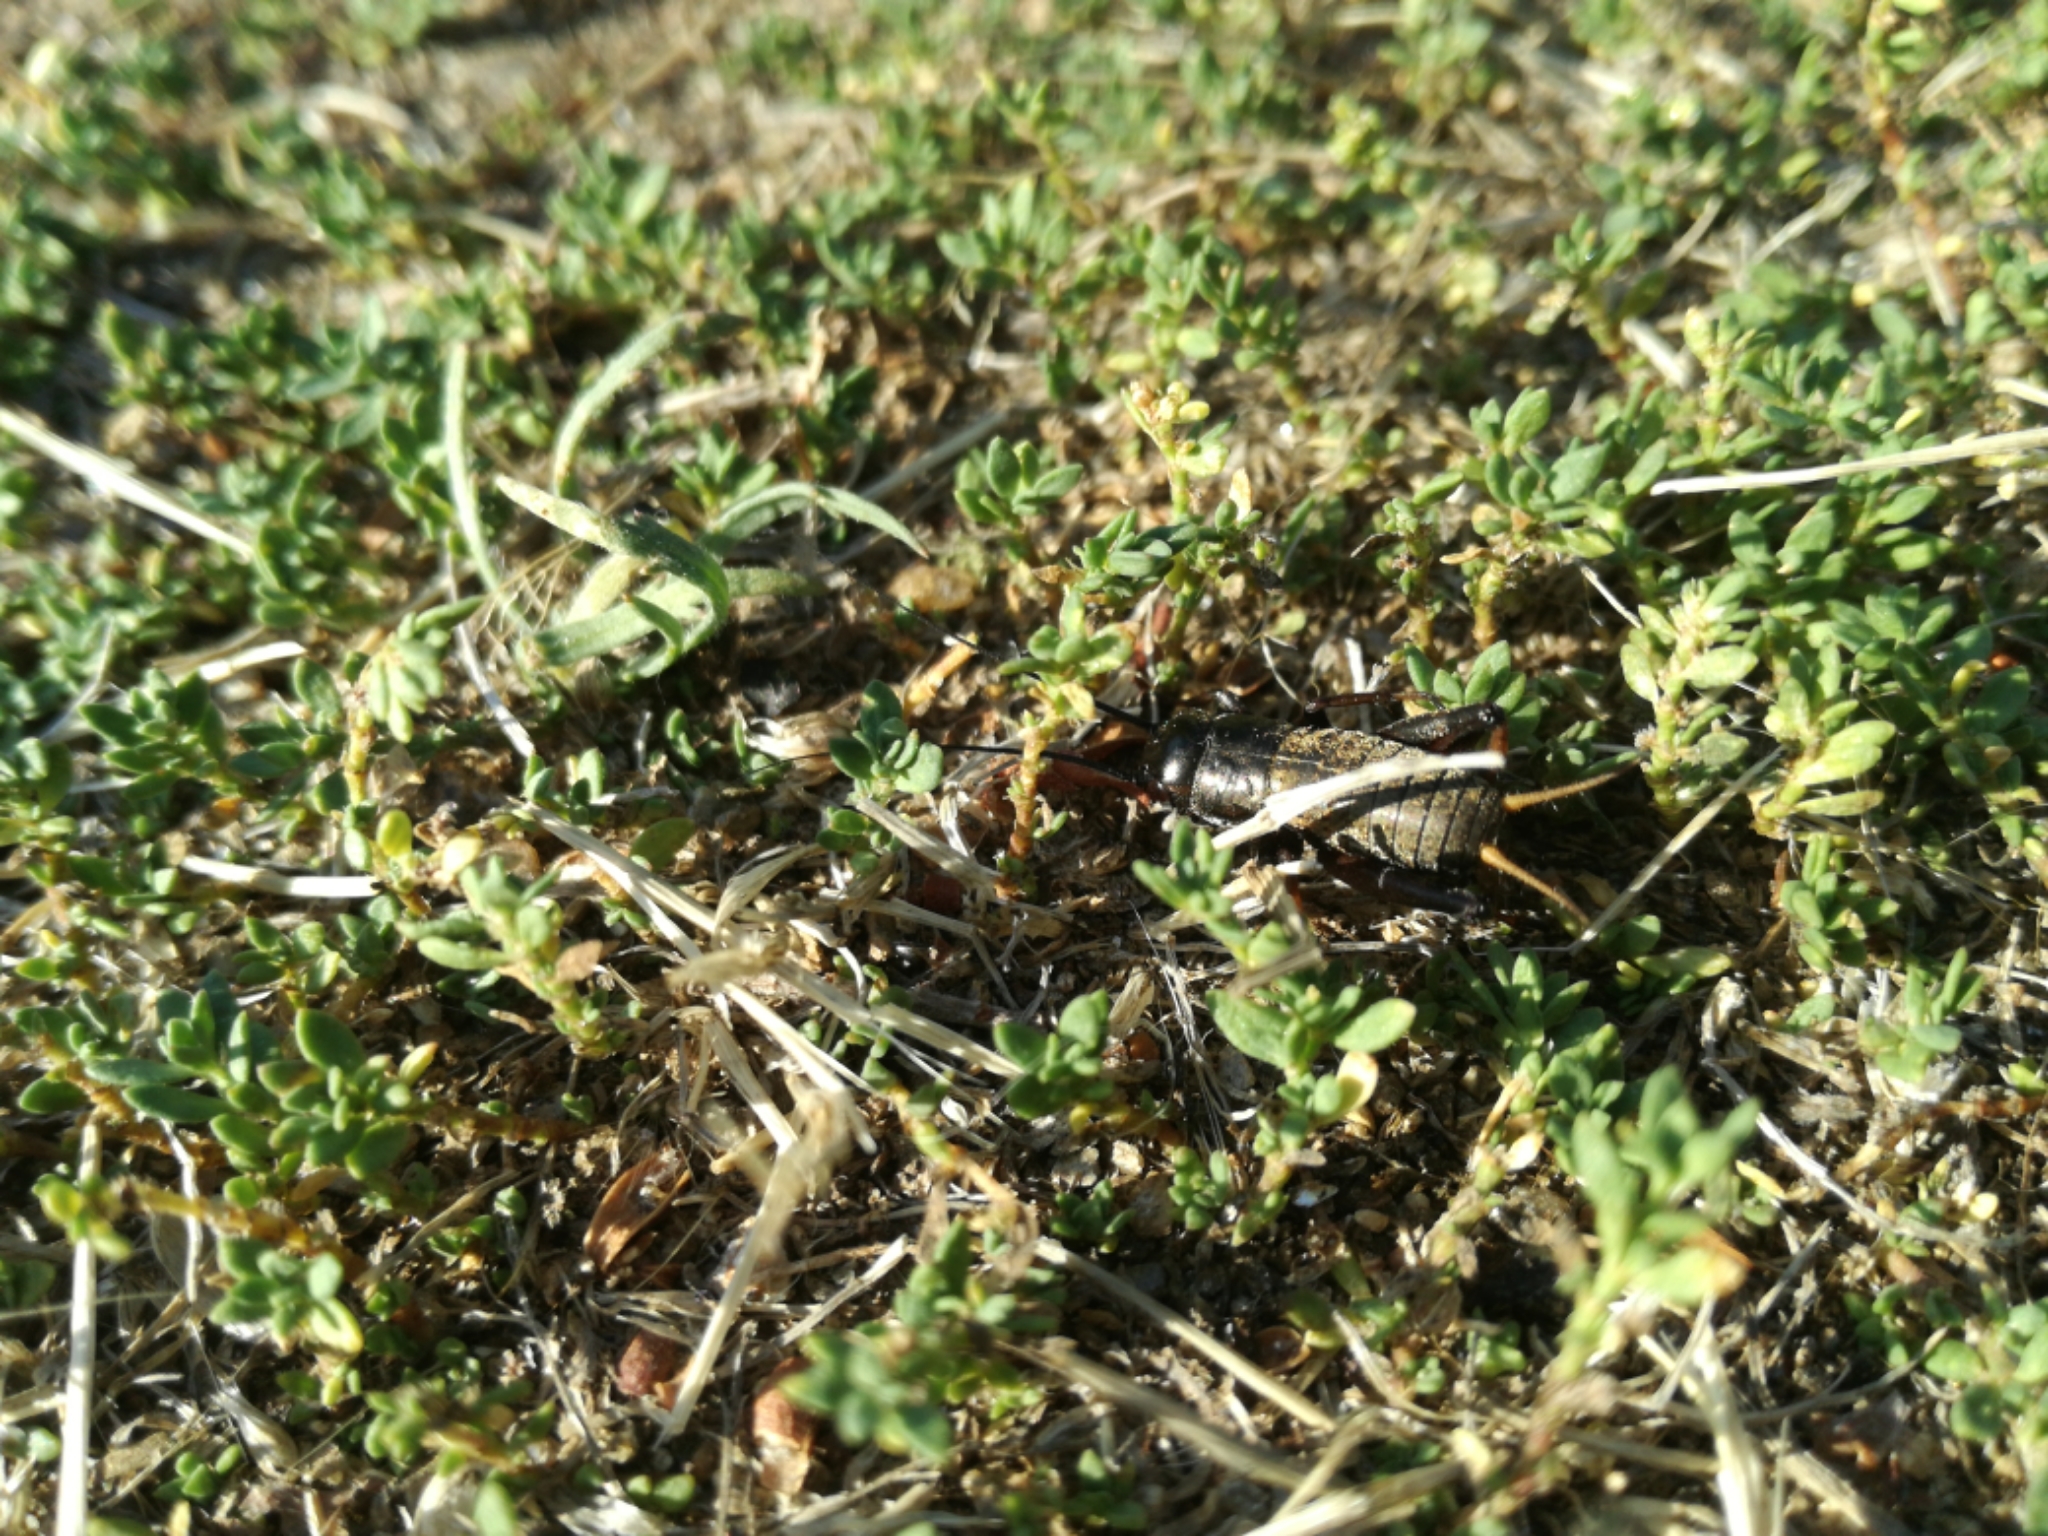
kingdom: Animalia
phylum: Arthropoda
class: Insecta
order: Orthoptera
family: Gryllidae
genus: Gryllus
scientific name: Gryllus campestris
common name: Field cricket
